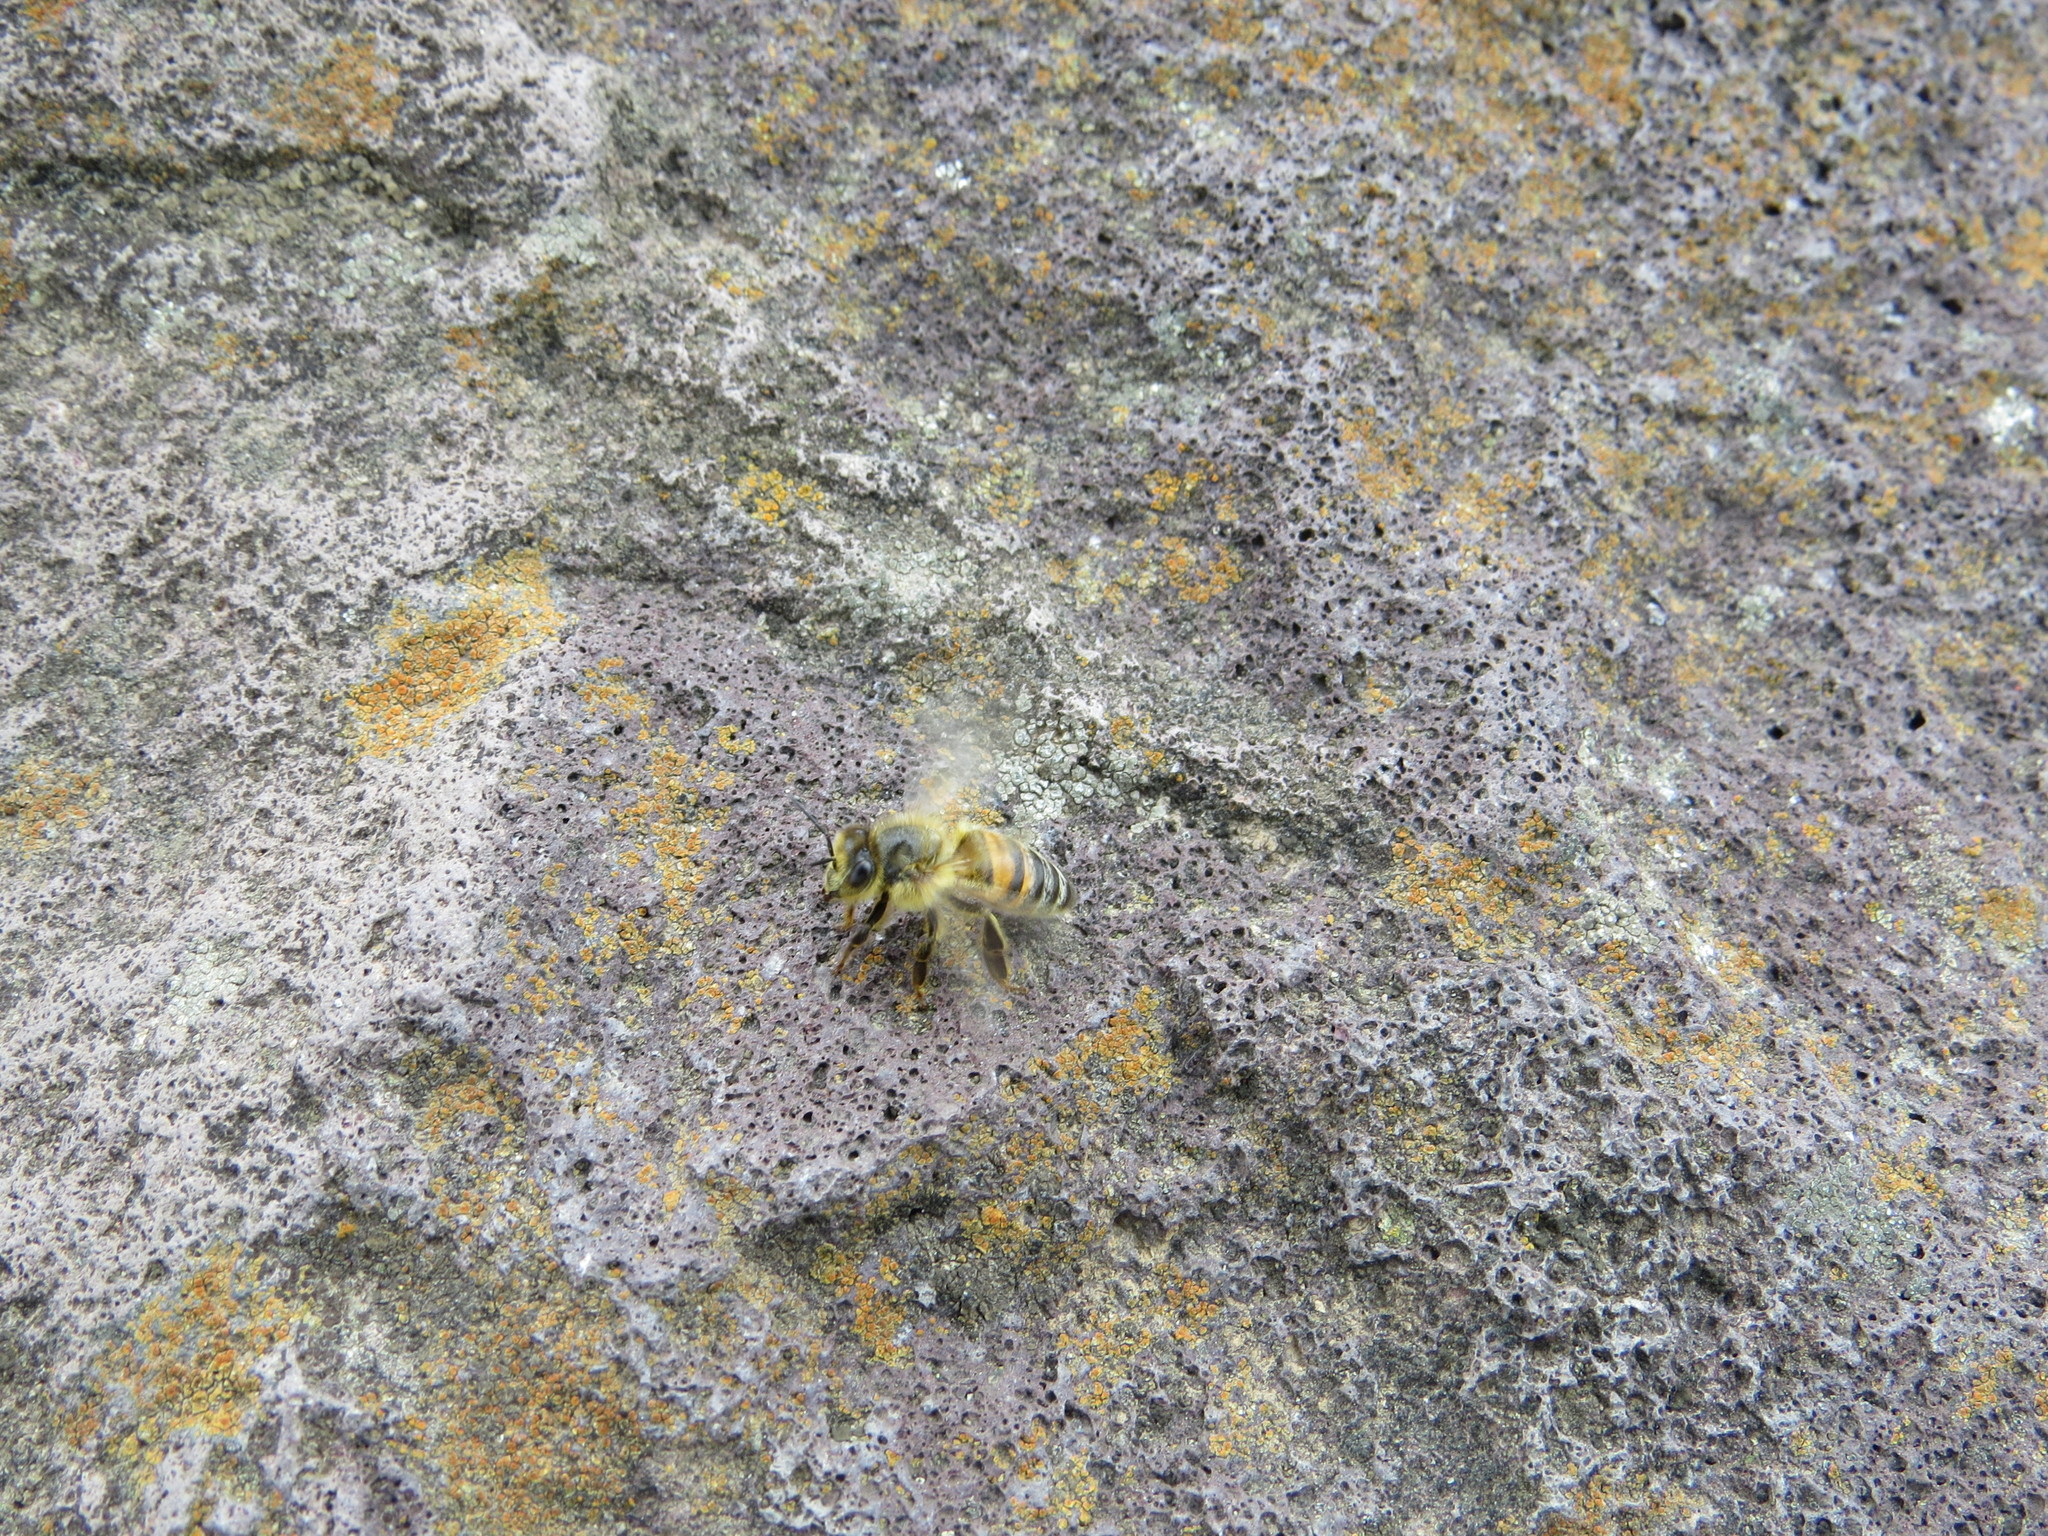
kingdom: Animalia
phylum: Arthropoda
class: Insecta
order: Hymenoptera
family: Apidae
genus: Apis
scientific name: Apis mellifera
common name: Honey bee
